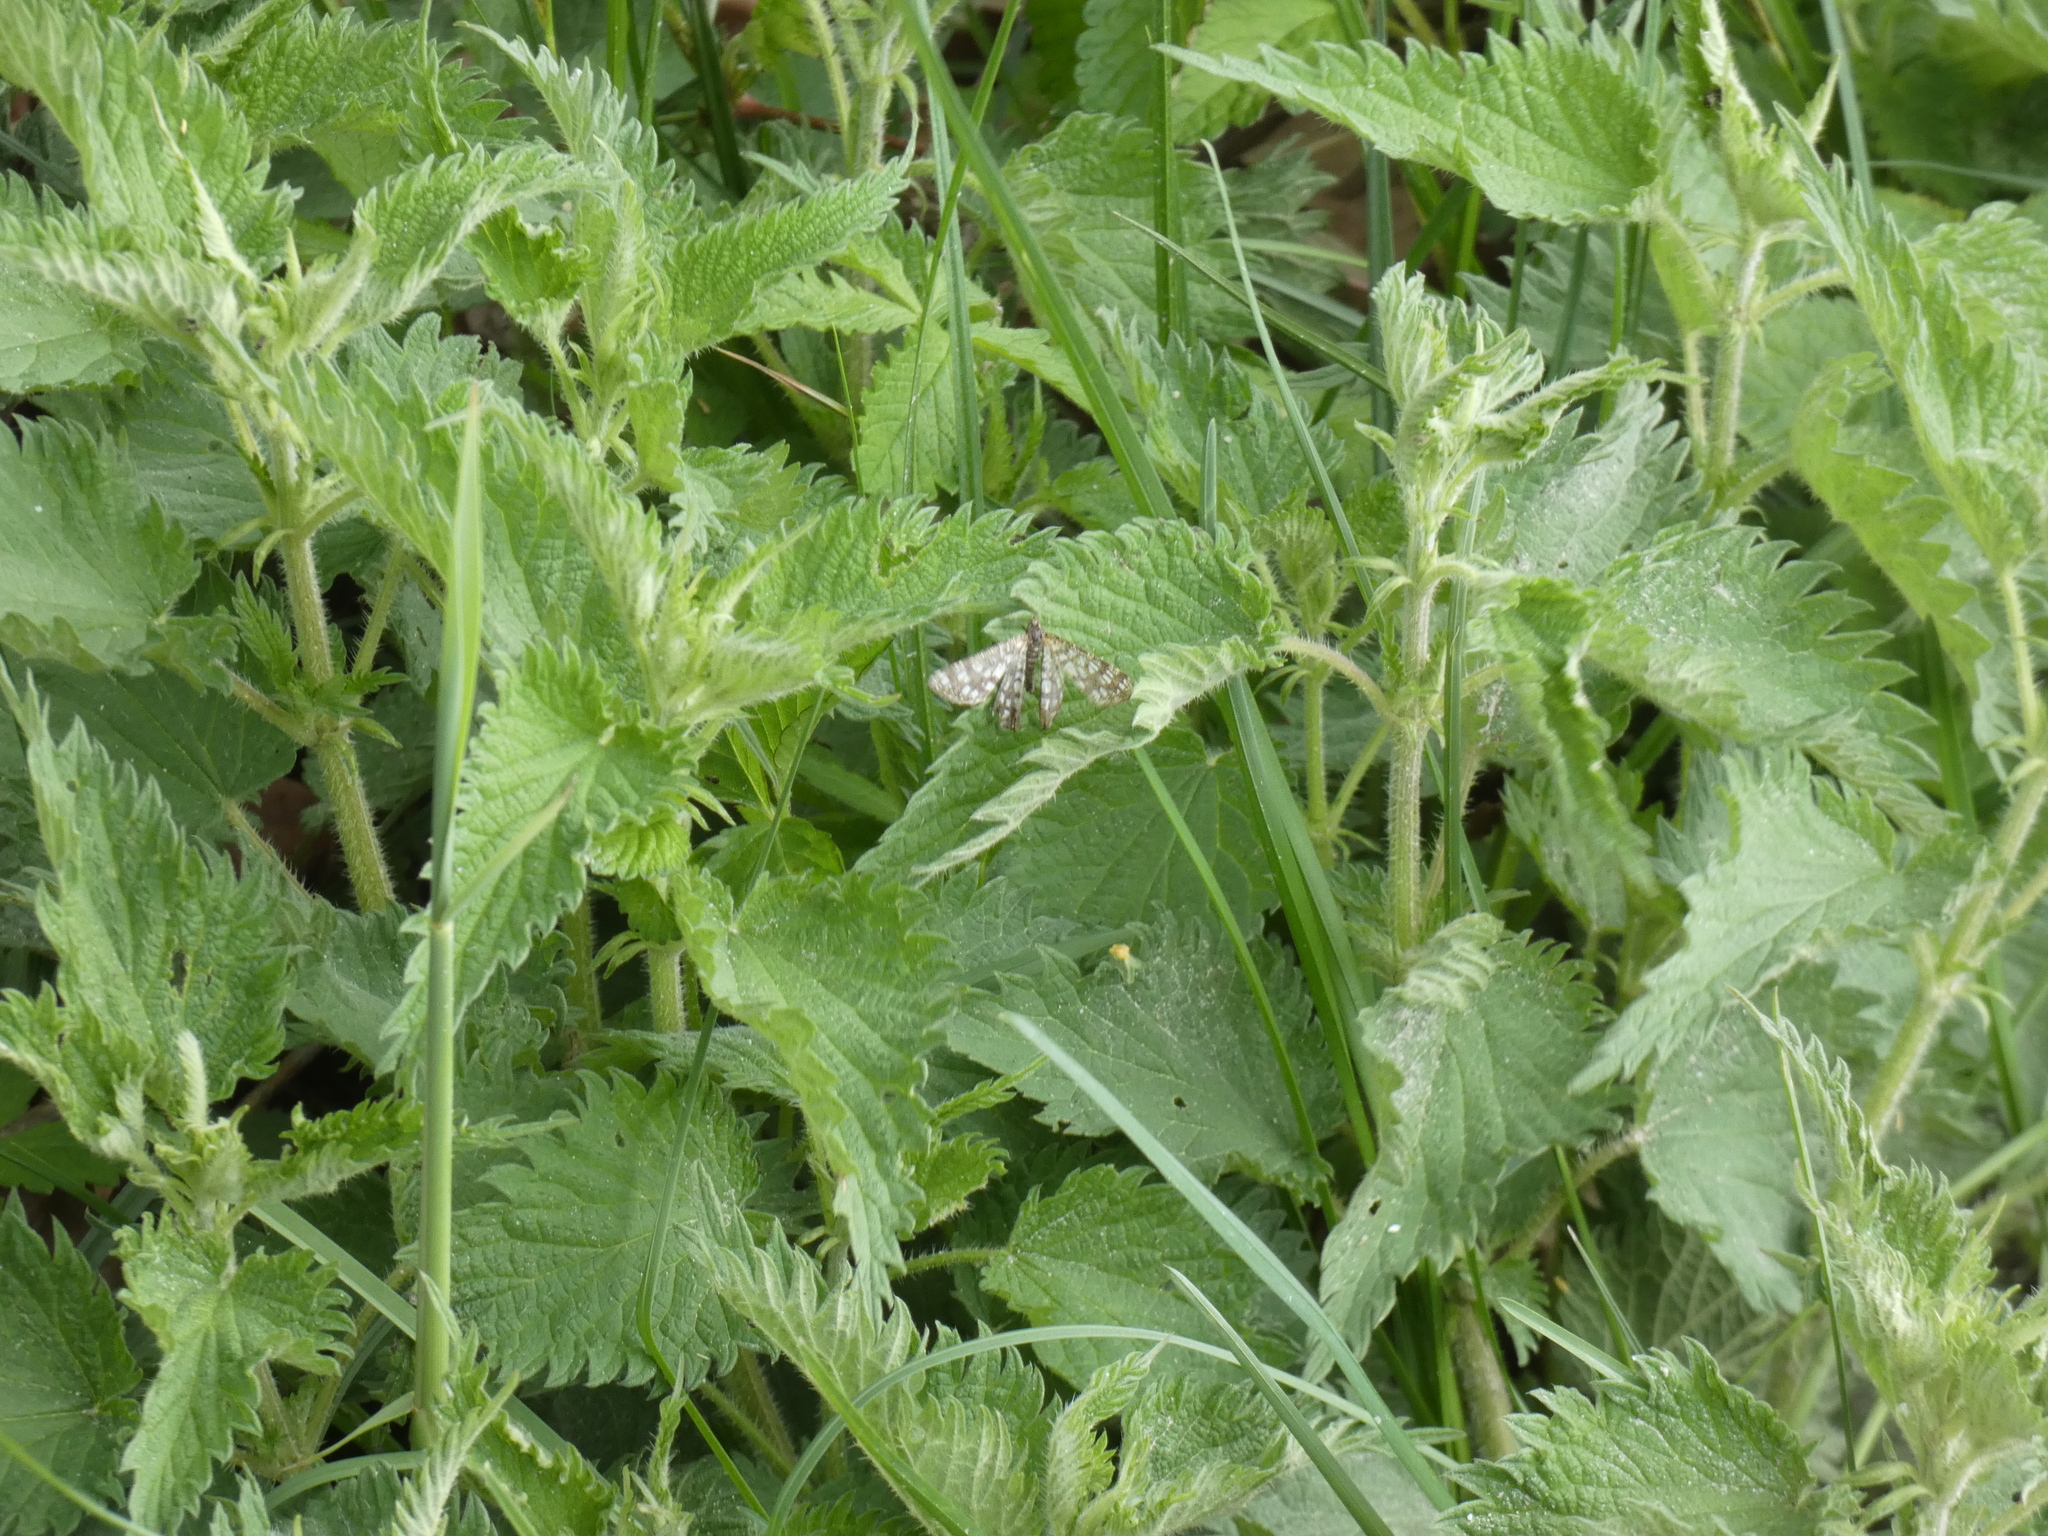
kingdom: Animalia
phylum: Arthropoda
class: Insecta
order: Lepidoptera
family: Geometridae
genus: Chiasmia
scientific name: Chiasmia clathrata
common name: Latticed heath
